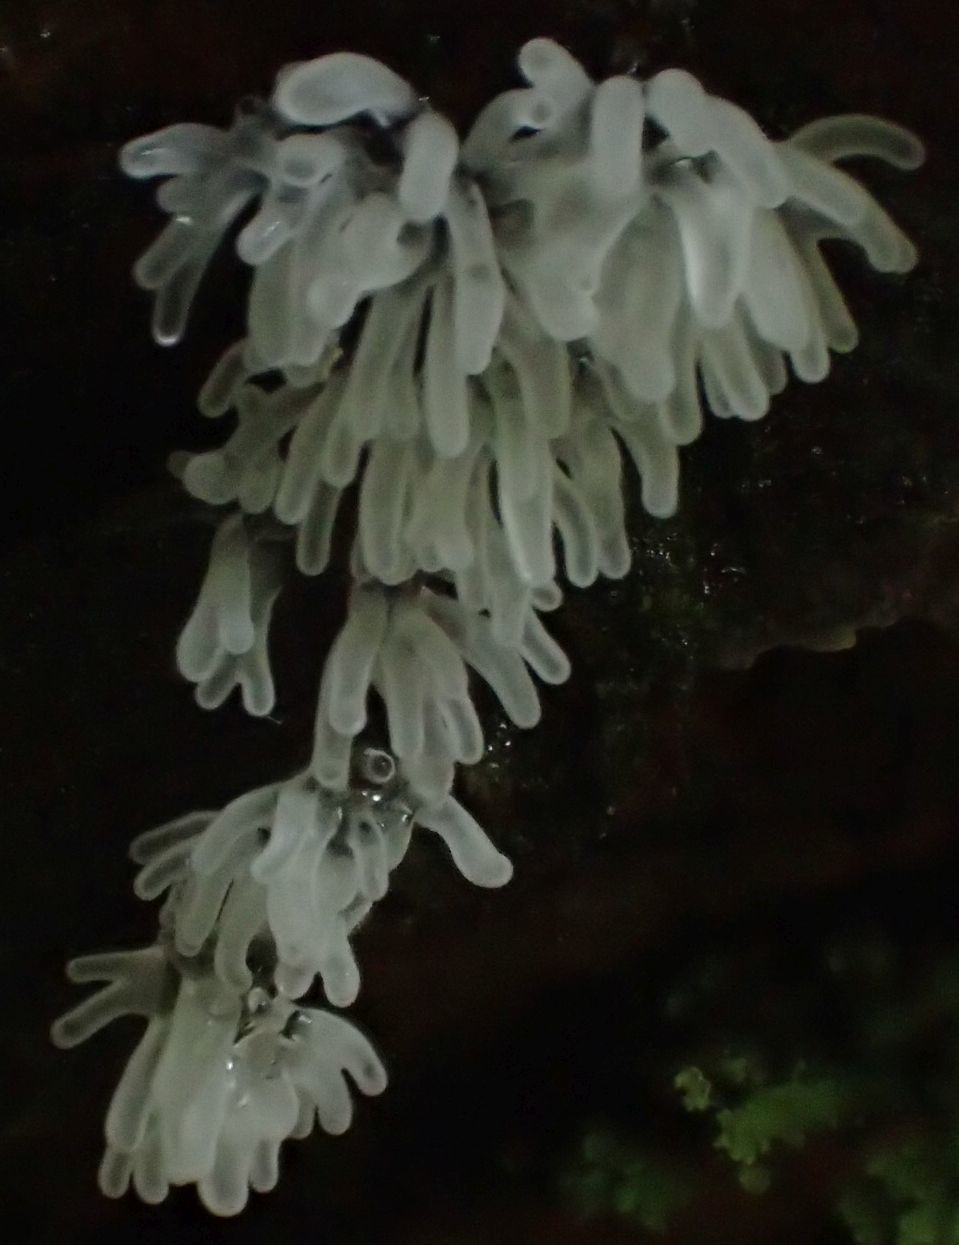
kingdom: Protozoa
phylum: Mycetozoa
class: Protosteliomycetes
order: Ceratiomyxales
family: Ceratiomyxaceae
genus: Ceratiomyxa
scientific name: Ceratiomyxa fruticulosa
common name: Honeycomb coral slime mold
